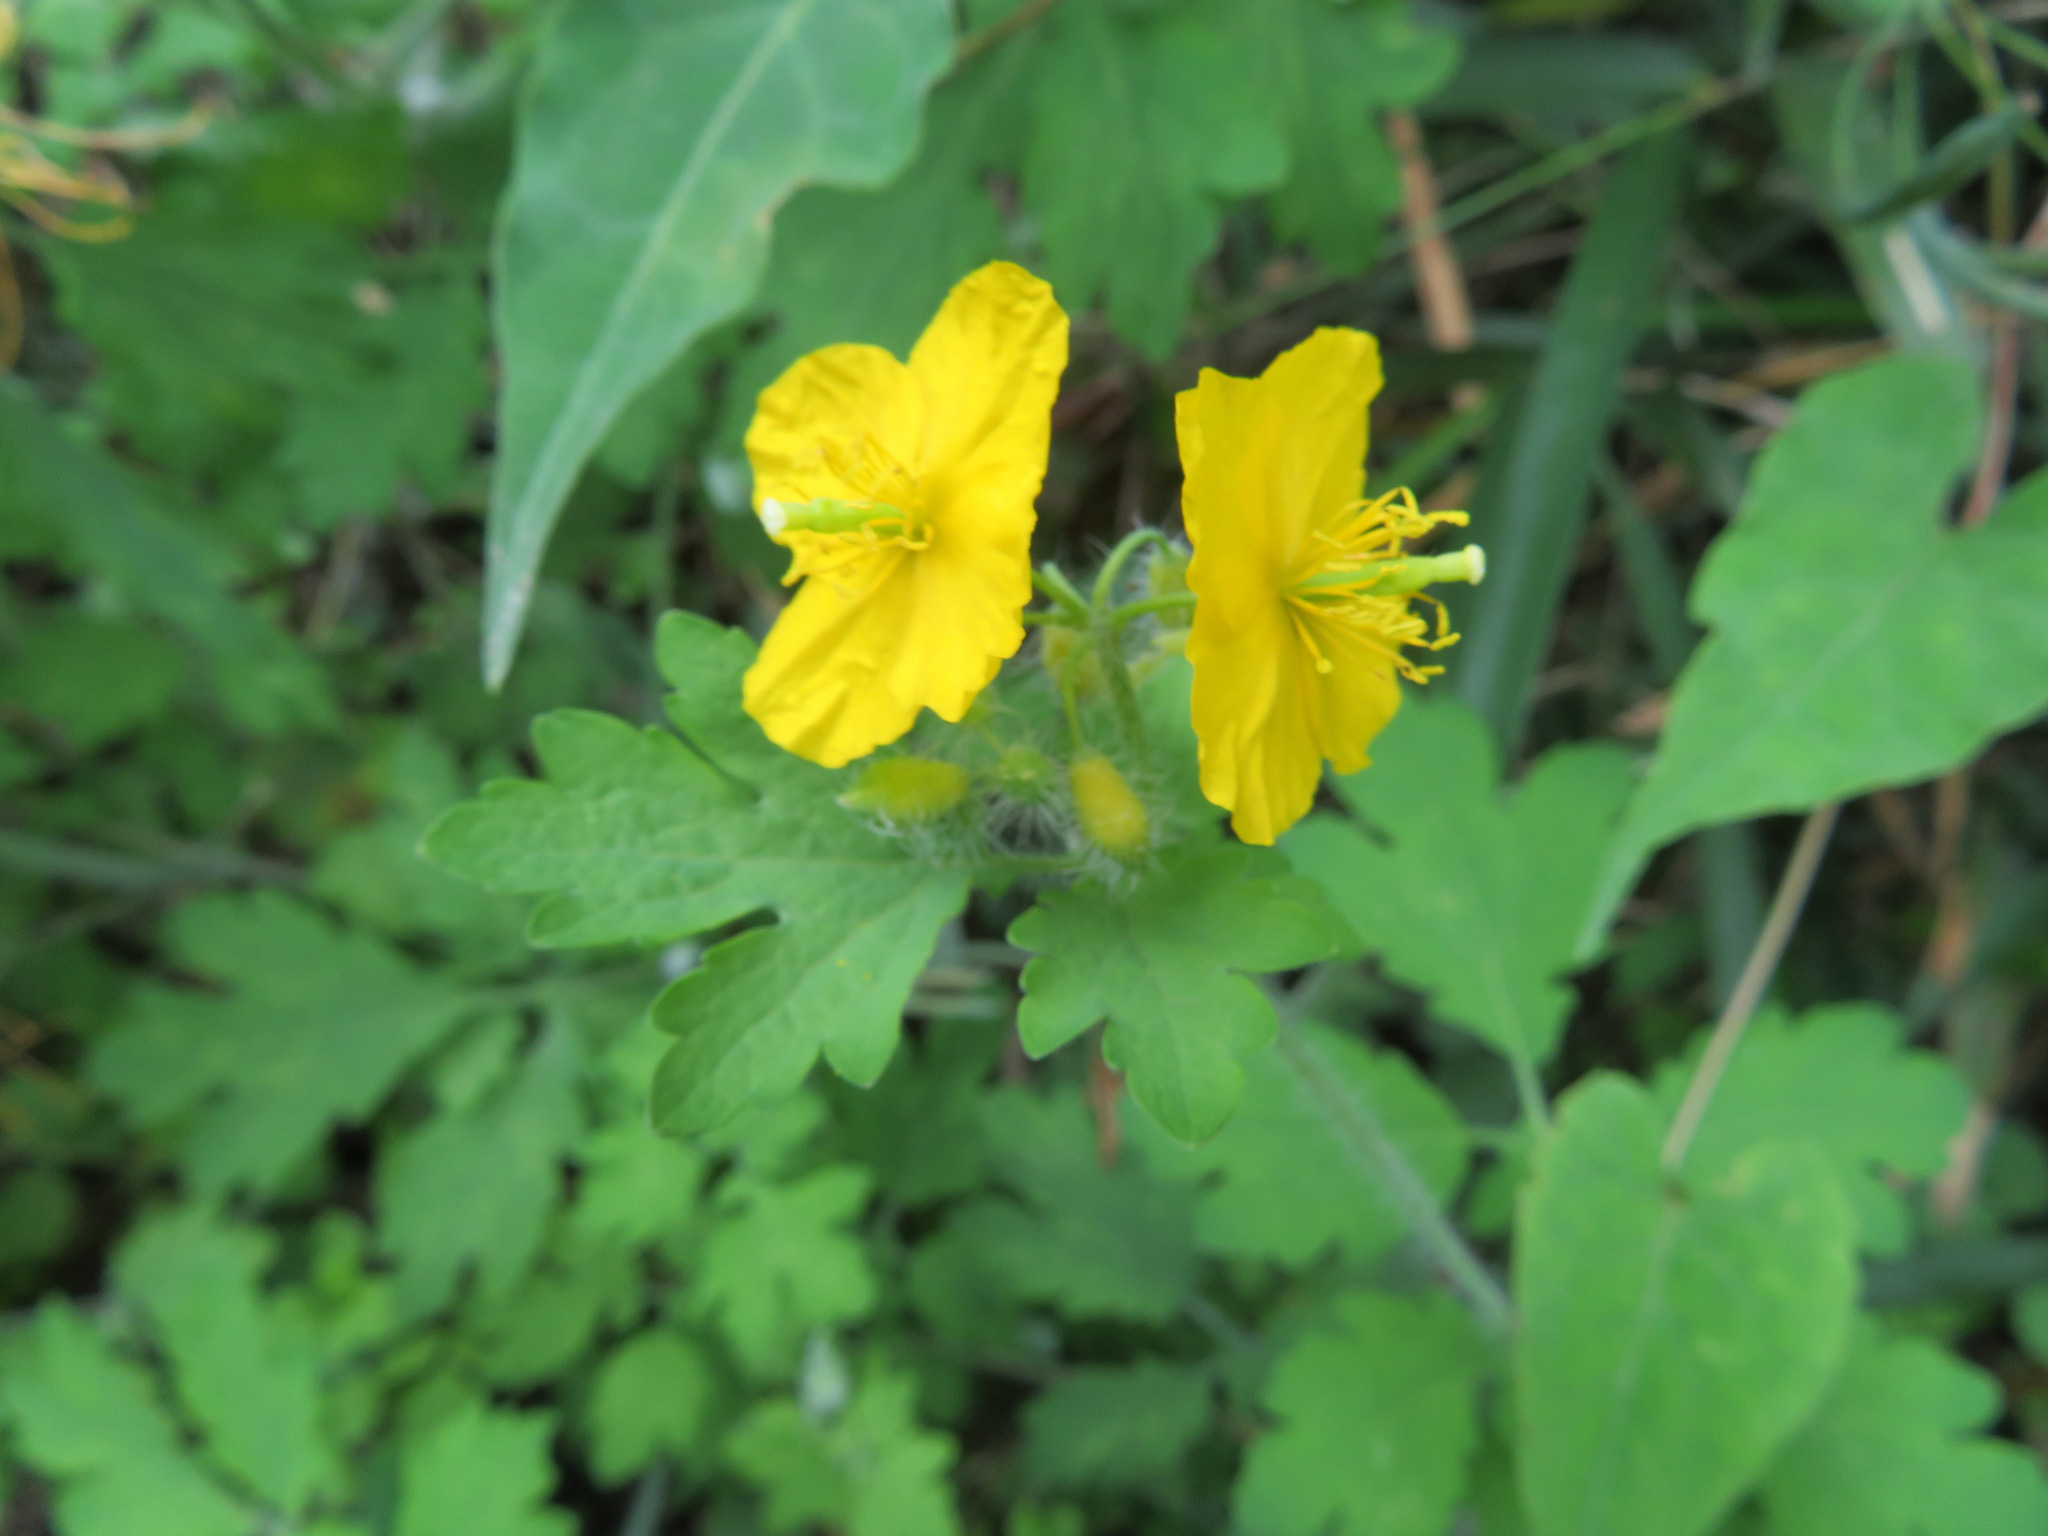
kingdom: Plantae
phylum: Tracheophyta
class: Magnoliopsida
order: Ranunculales
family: Papaveraceae
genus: Chelidonium
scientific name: Chelidonium majus
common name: Greater celandine
